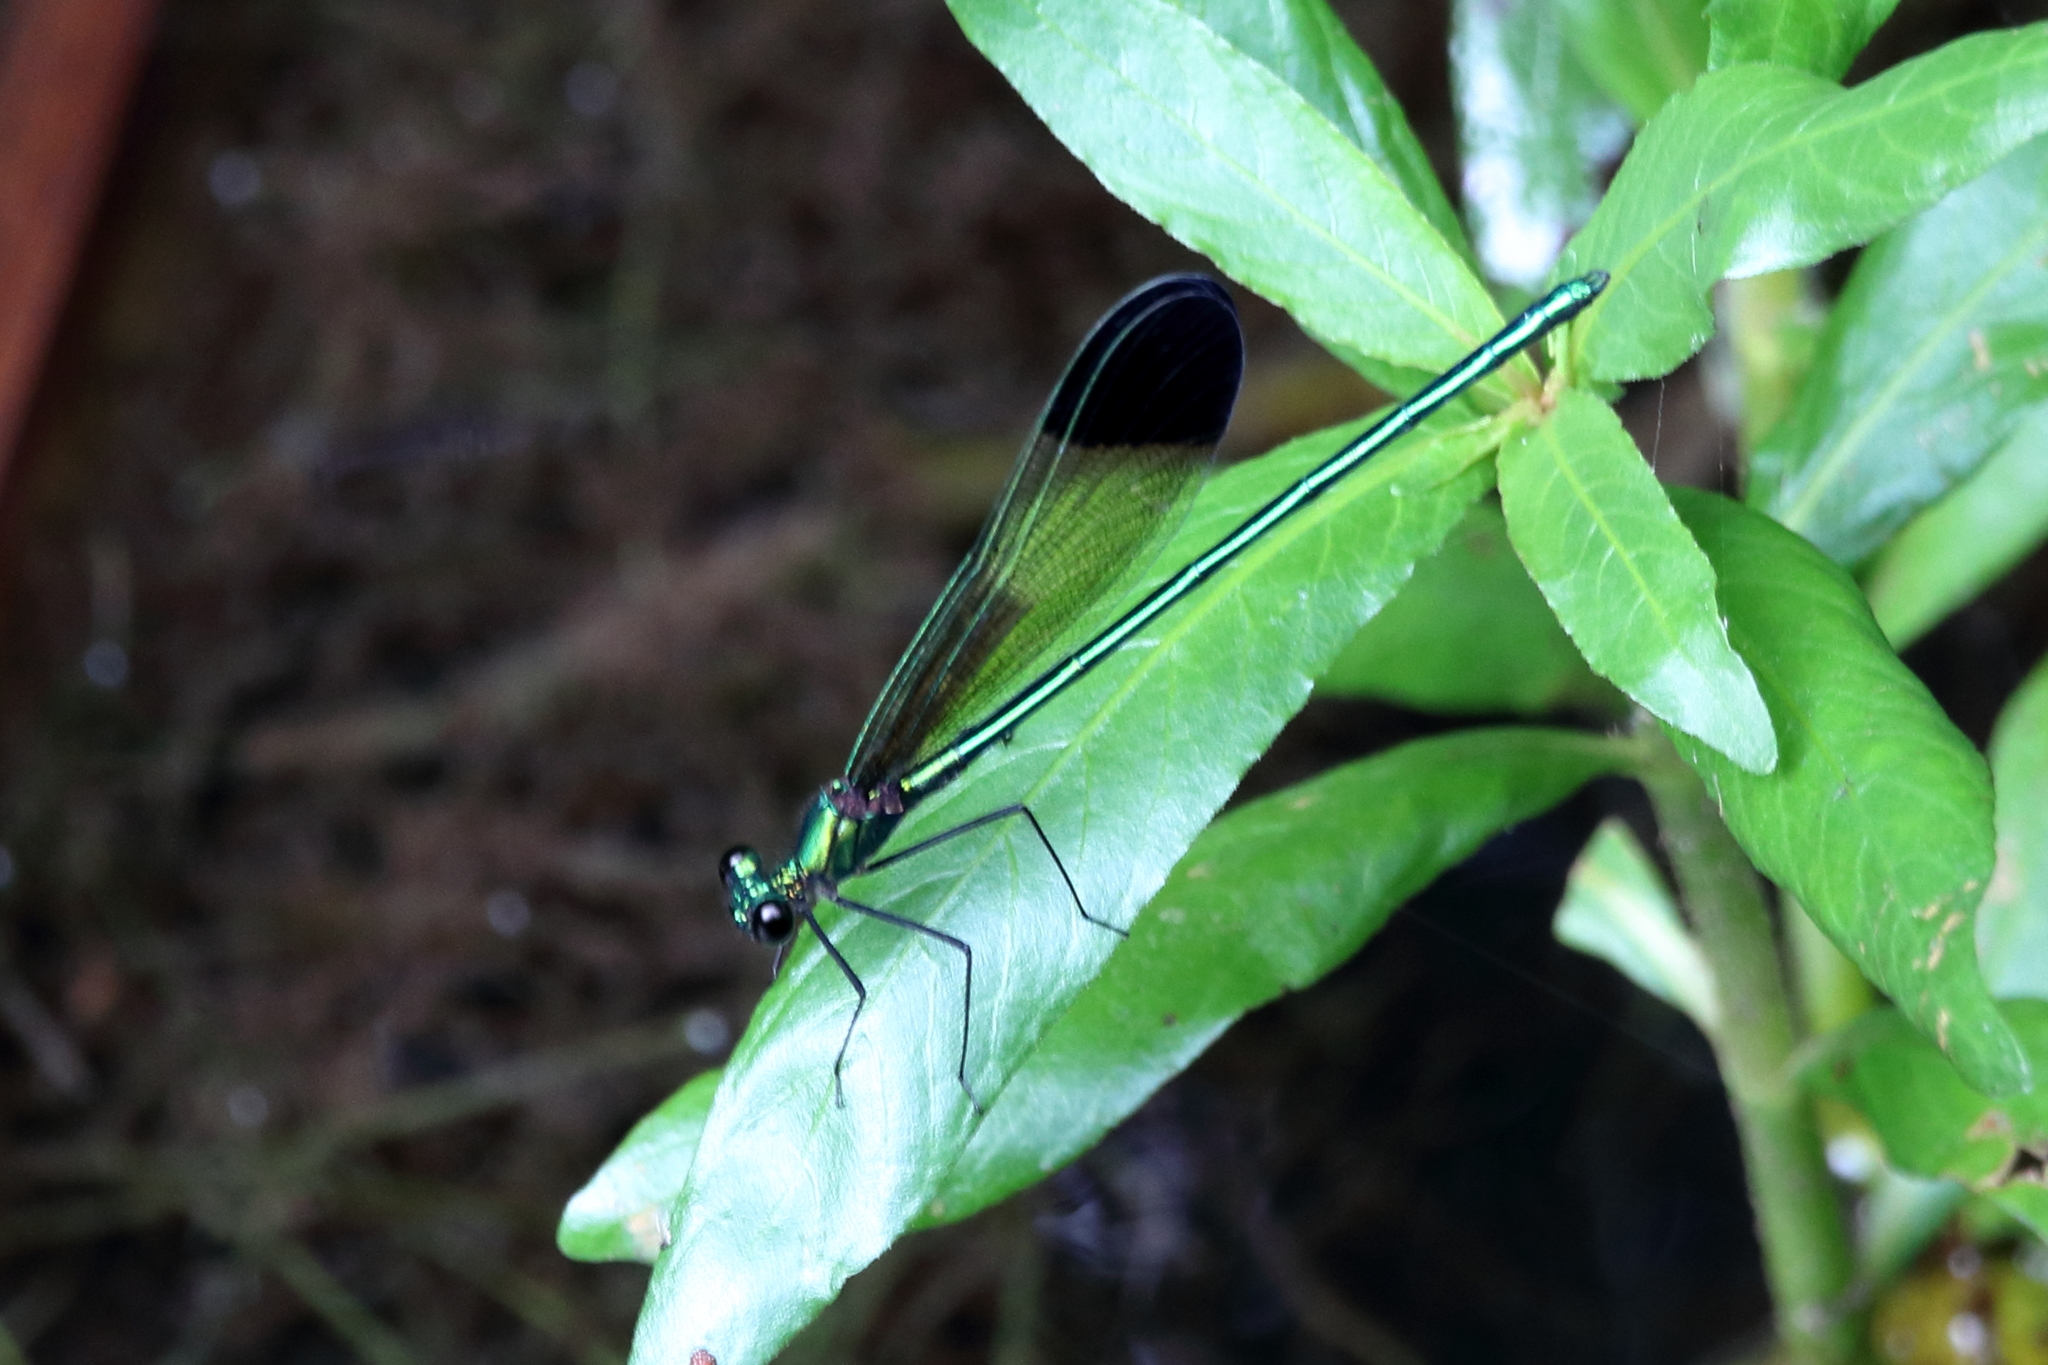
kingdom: Animalia
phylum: Arthropoda
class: Insecta
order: Odonata
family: Calopterygidae
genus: Calopteryx
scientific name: Calopteryx dimidiata
